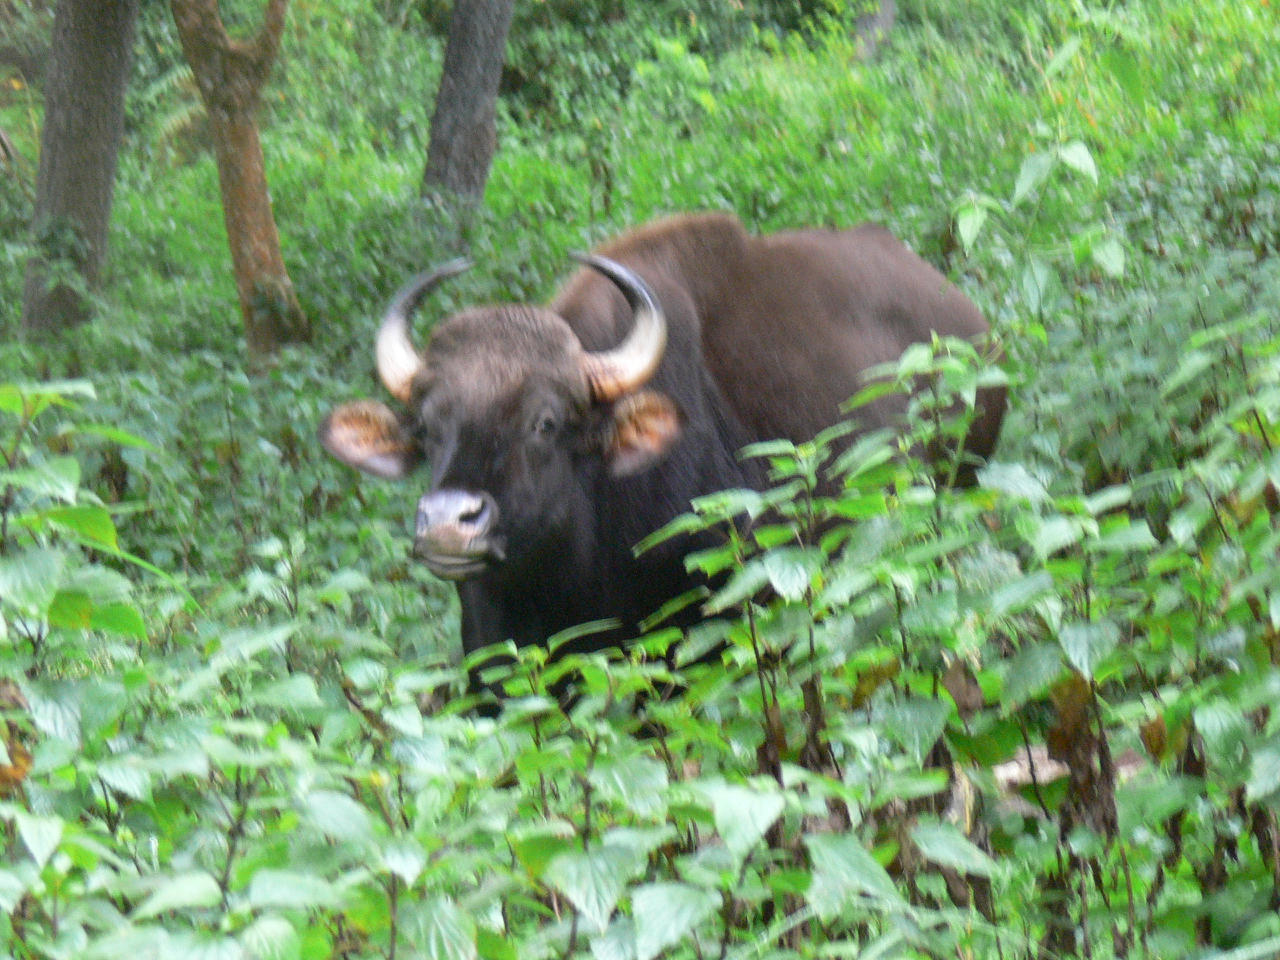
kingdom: Animalia
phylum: Chordata
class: Mammalia
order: Artiodactyla
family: Bovidae
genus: Bos
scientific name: Bos frontalis
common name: Gaur
